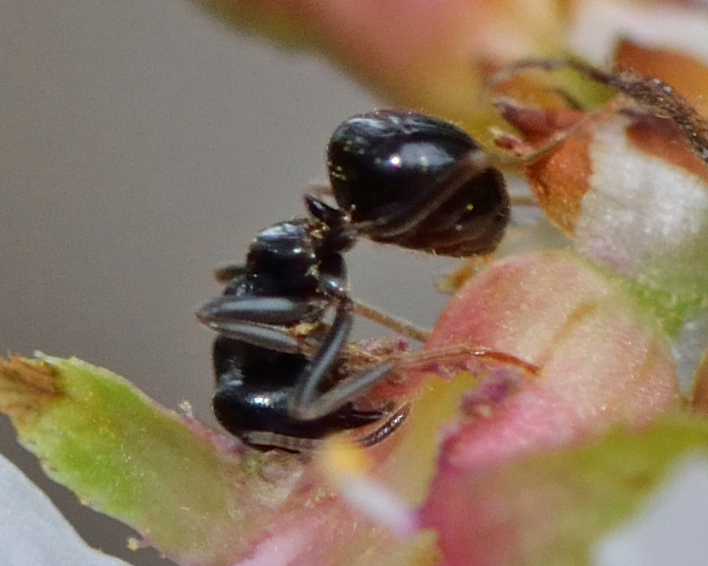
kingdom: Animalia
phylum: Arthropoda
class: Insecta
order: Hymenoptera
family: Formicidae
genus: Lasius
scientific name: Lasius fuliginosus
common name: Jet ant
